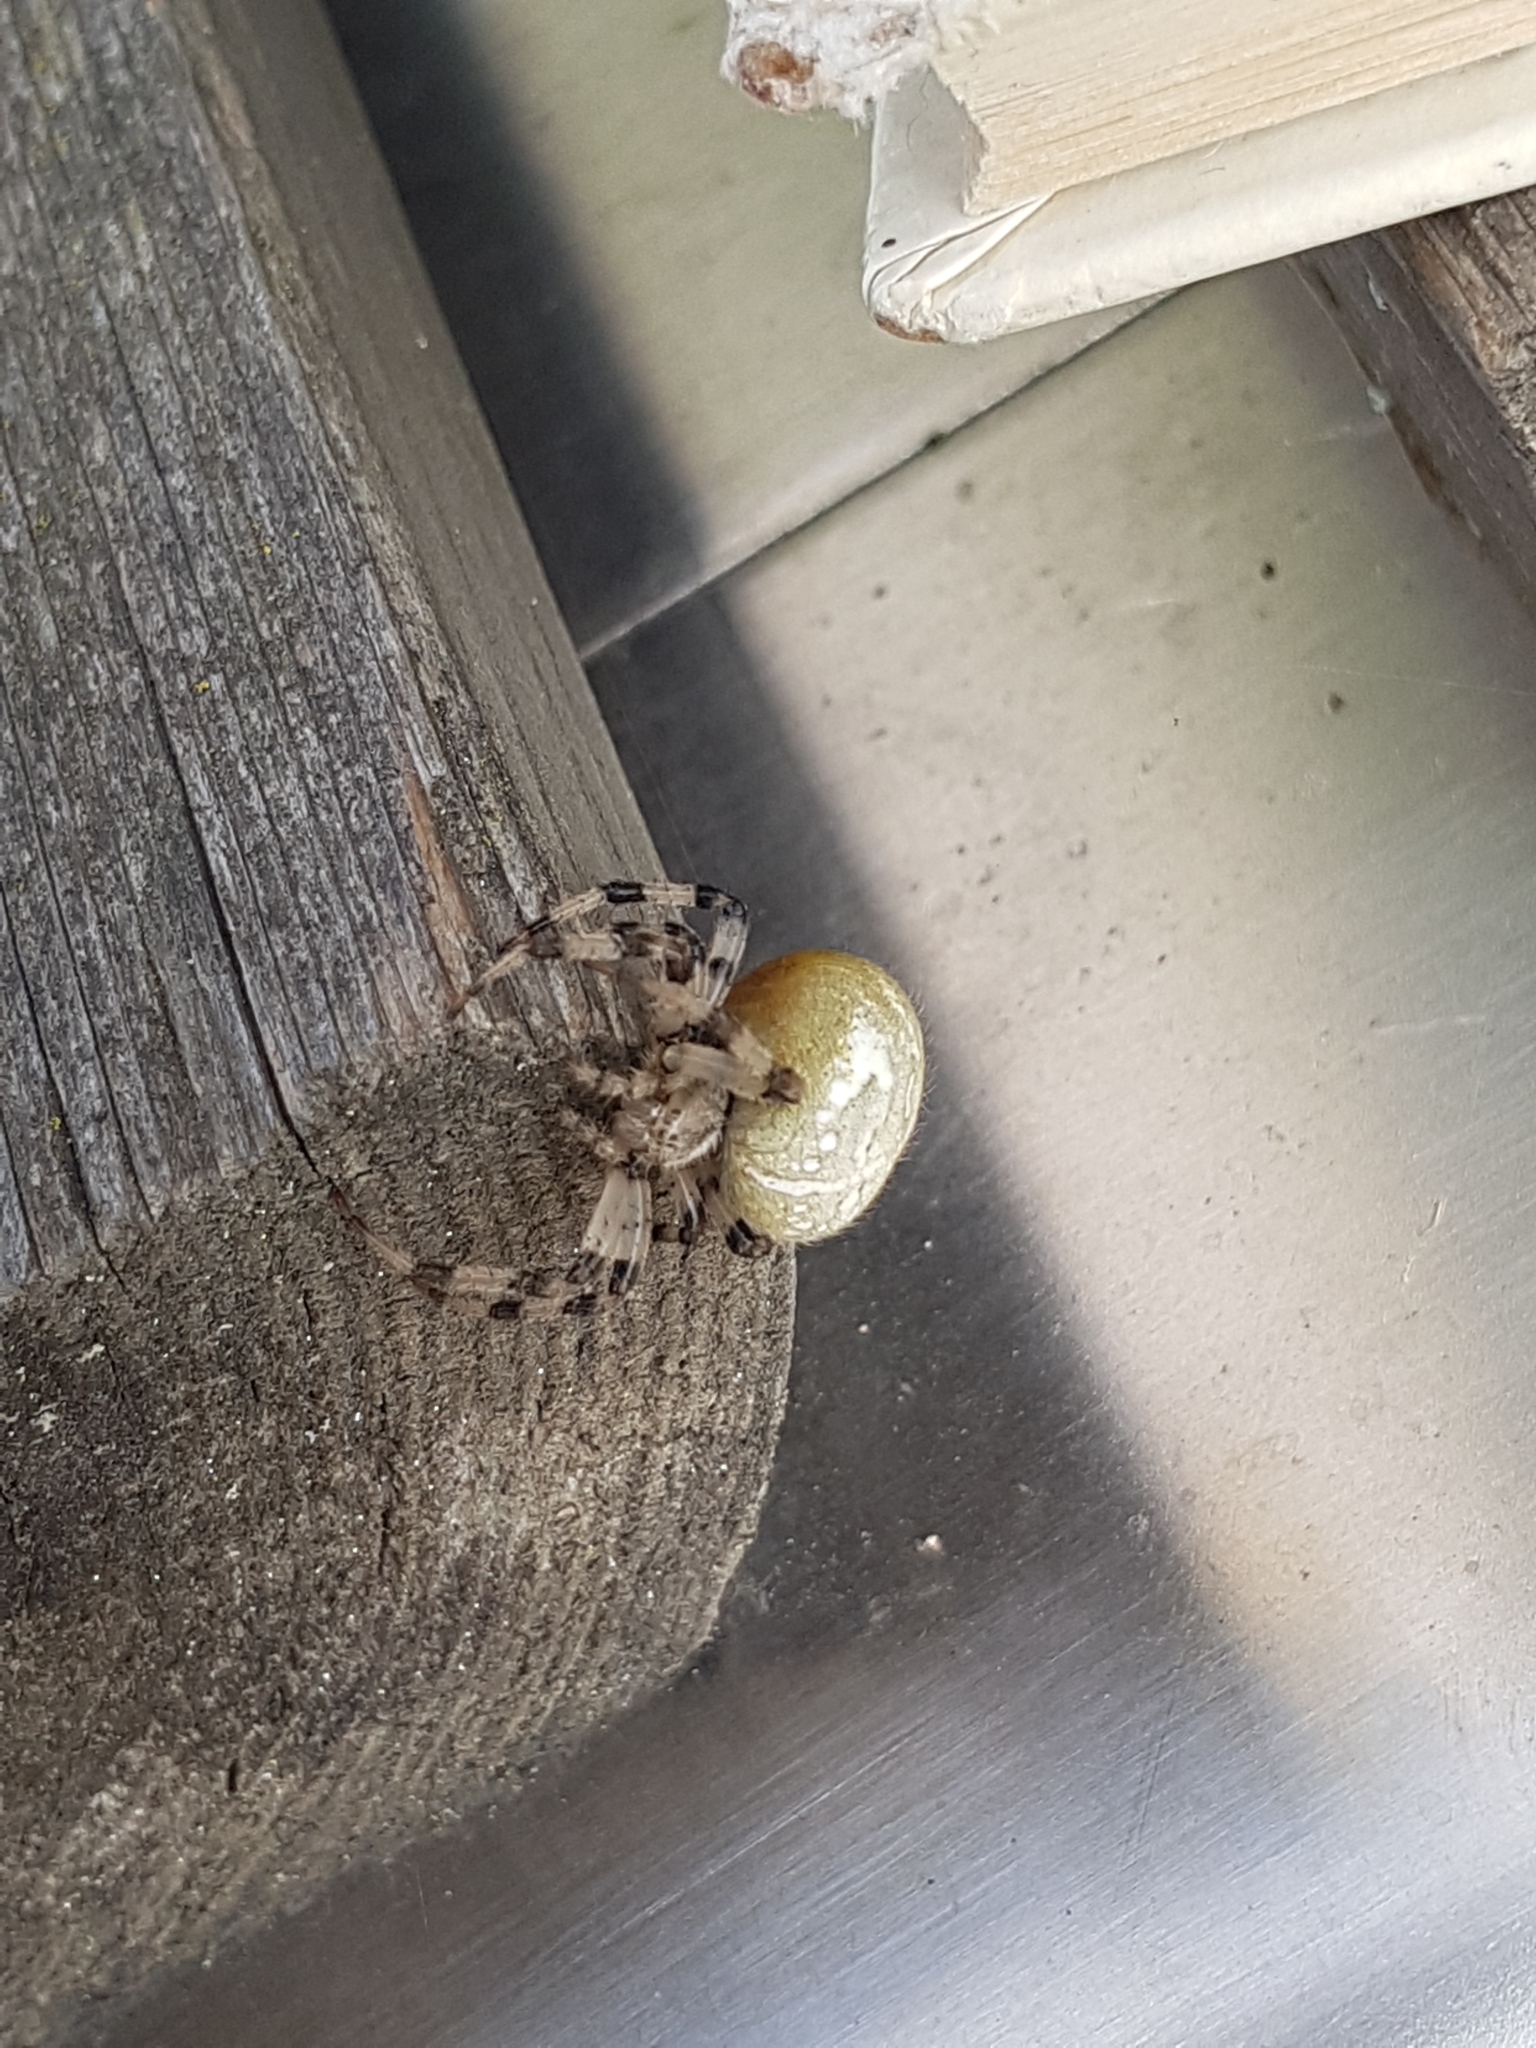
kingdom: Animalia
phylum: Arthropoda
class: Arachnida
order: Araneae
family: Araneidae
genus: Araneus
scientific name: Araneus quadratus
